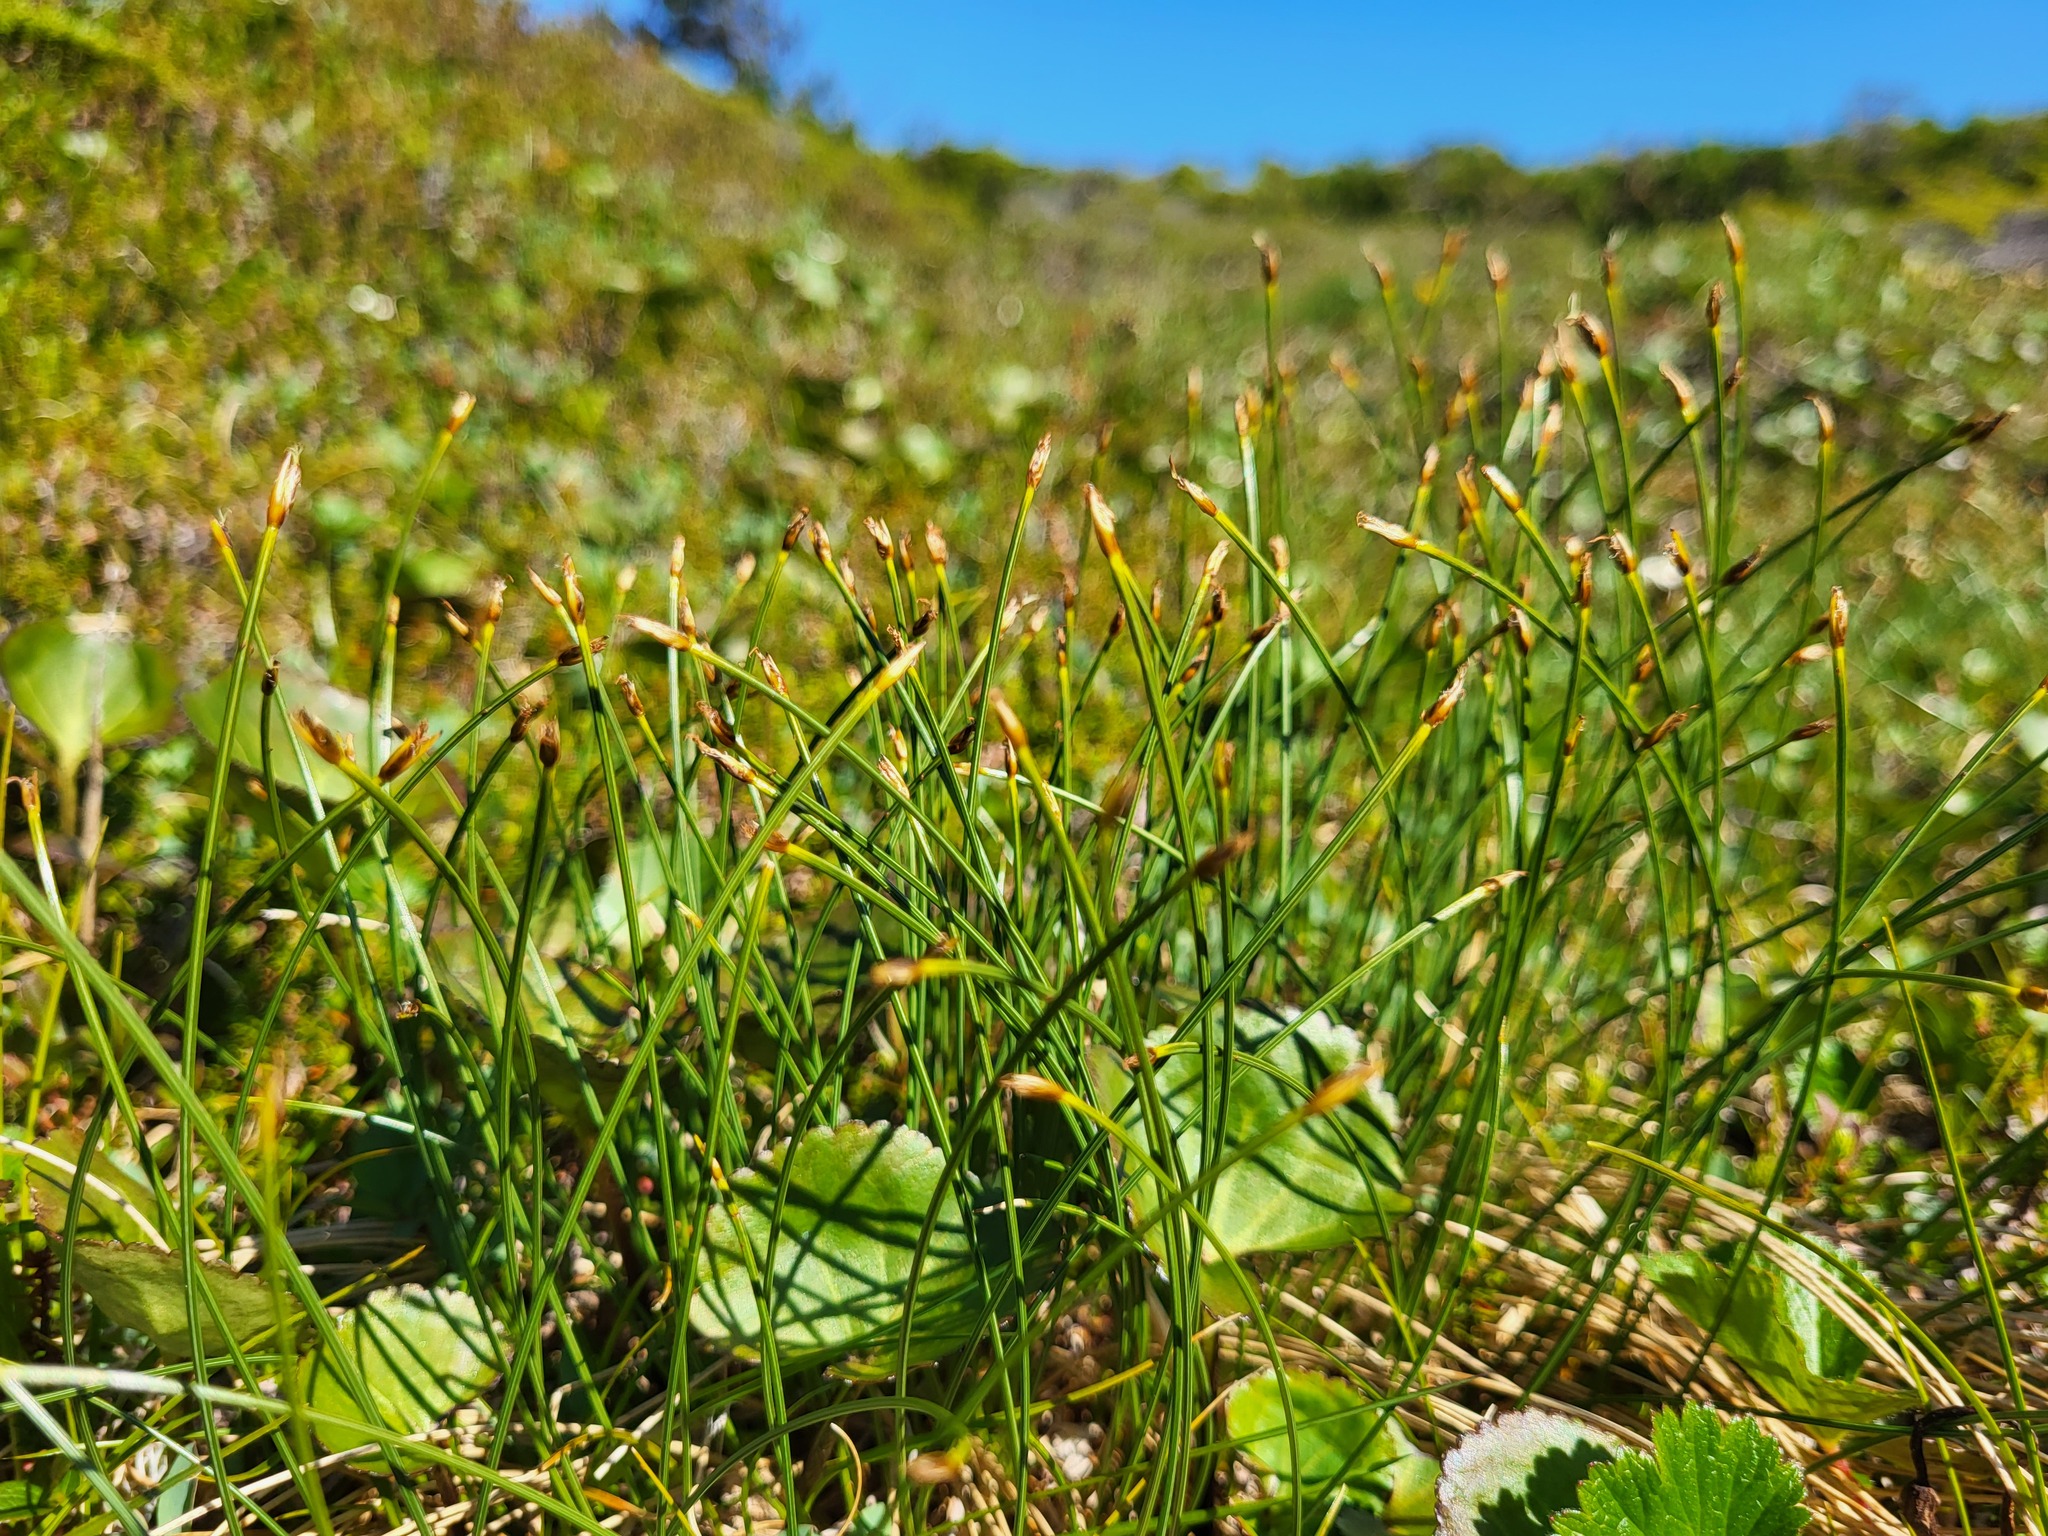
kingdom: Plantae
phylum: Tracheophyta
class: Liliopsida
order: Poales
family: Cyperaceae
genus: Trichophorum
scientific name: Trichophorum cespitosum
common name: Cespitose bulrush
